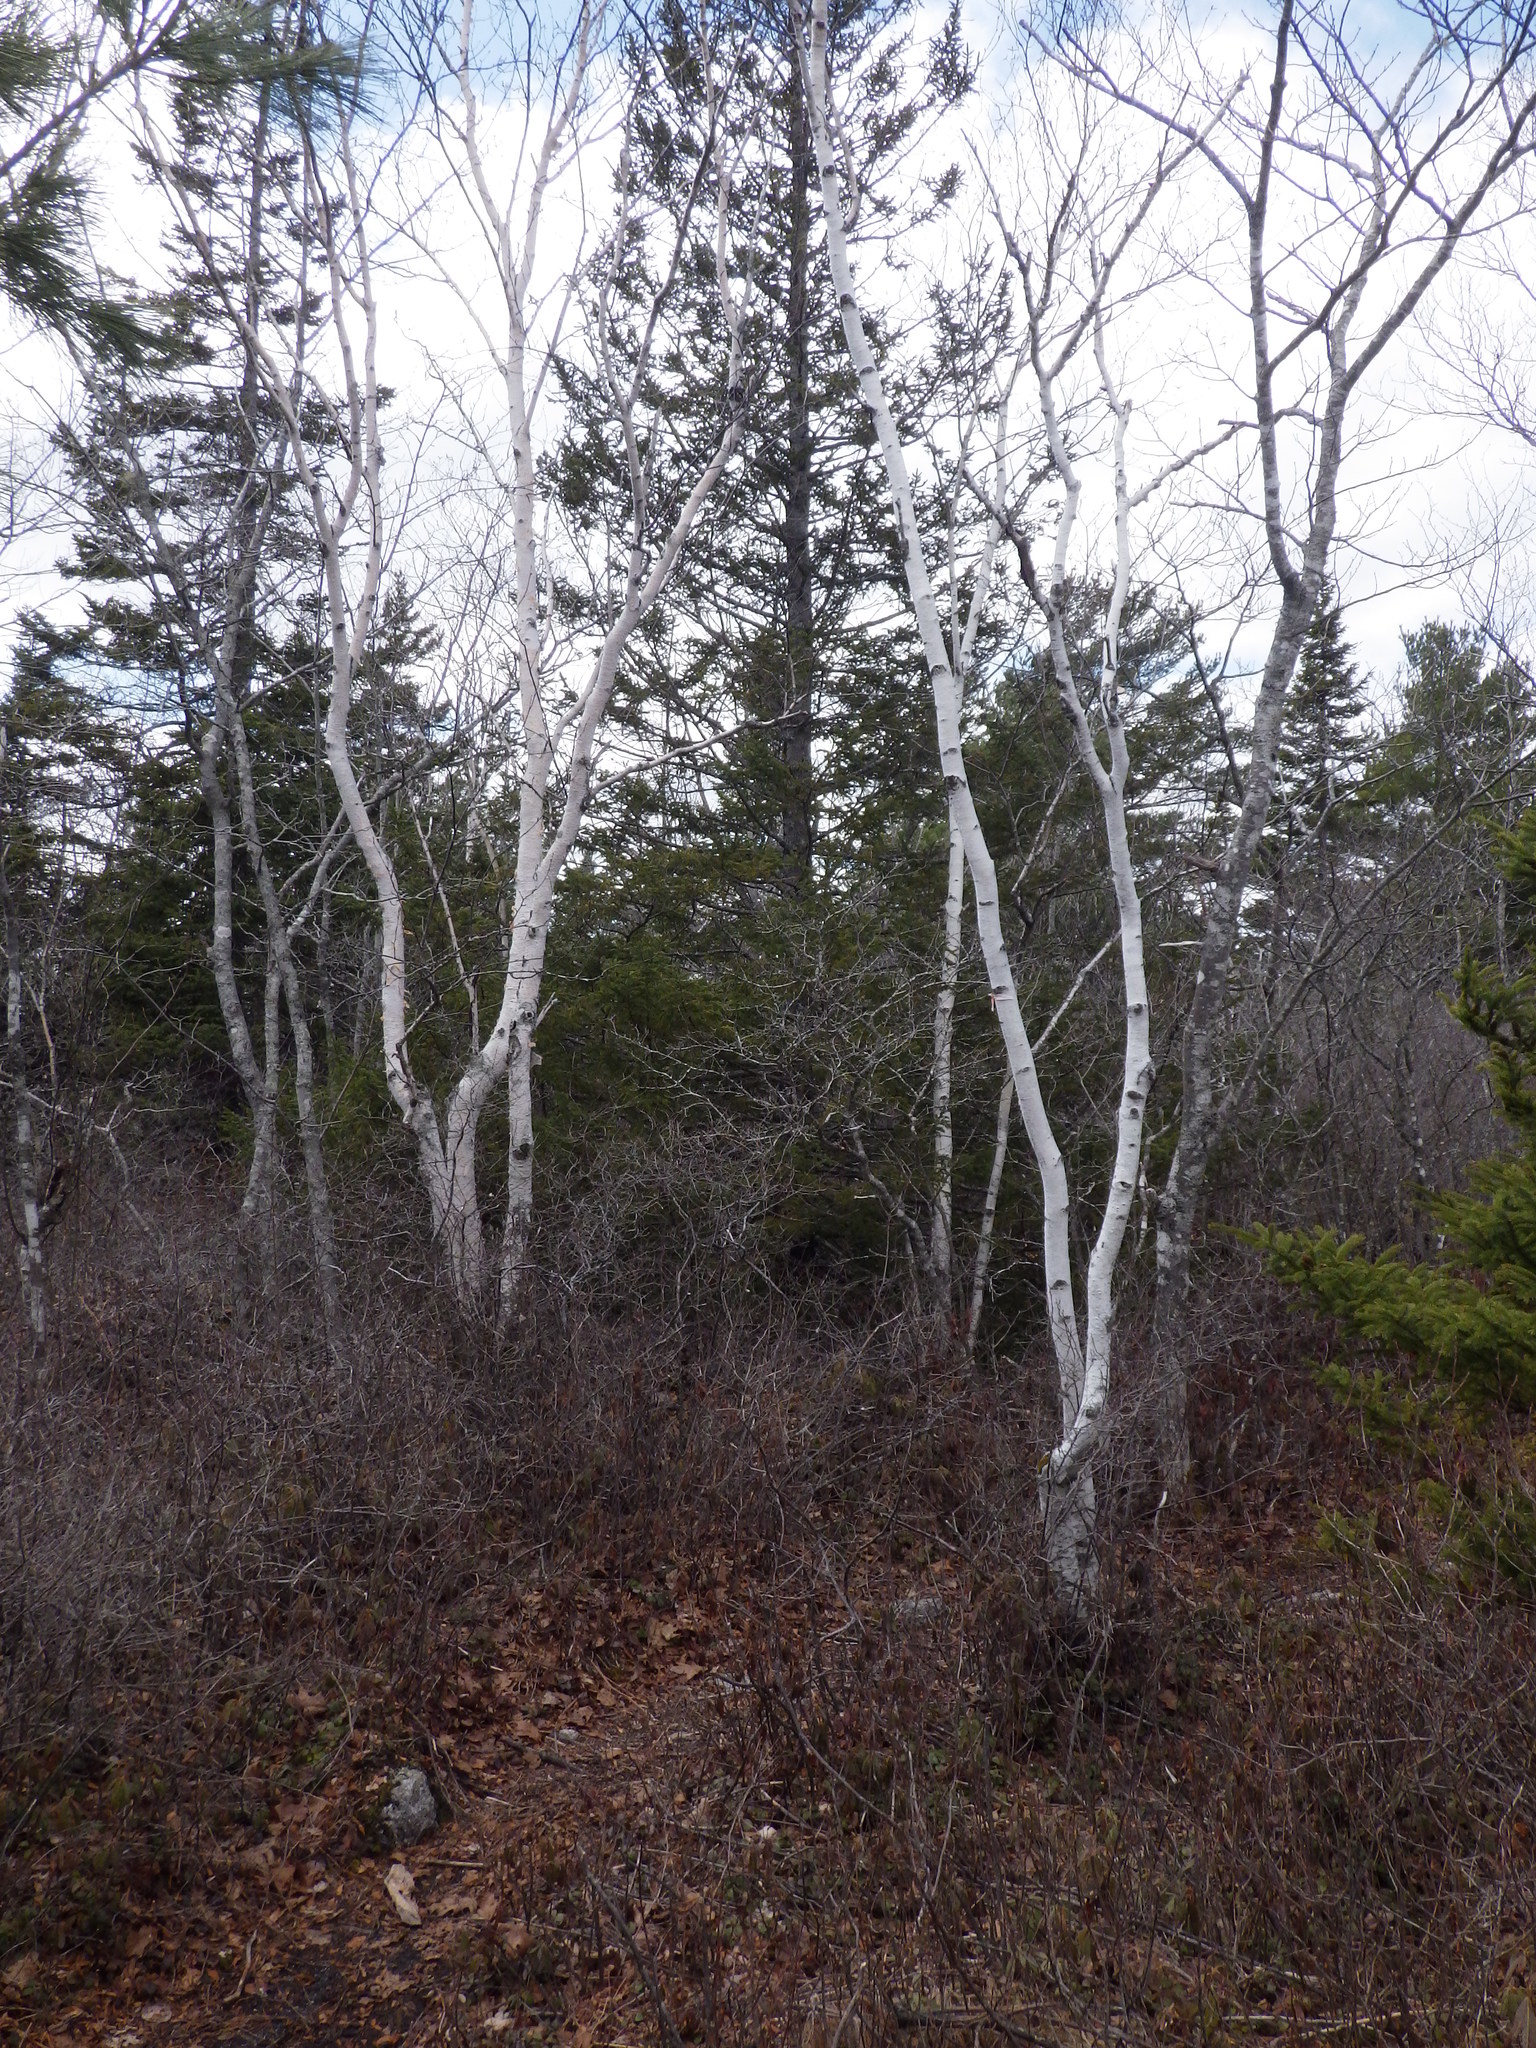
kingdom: Plantae
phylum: Tracheophyta
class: Magnoliopsida
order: Fagales
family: Betulaceae
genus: Betula
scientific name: Betula papyrifera
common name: Paper birch
